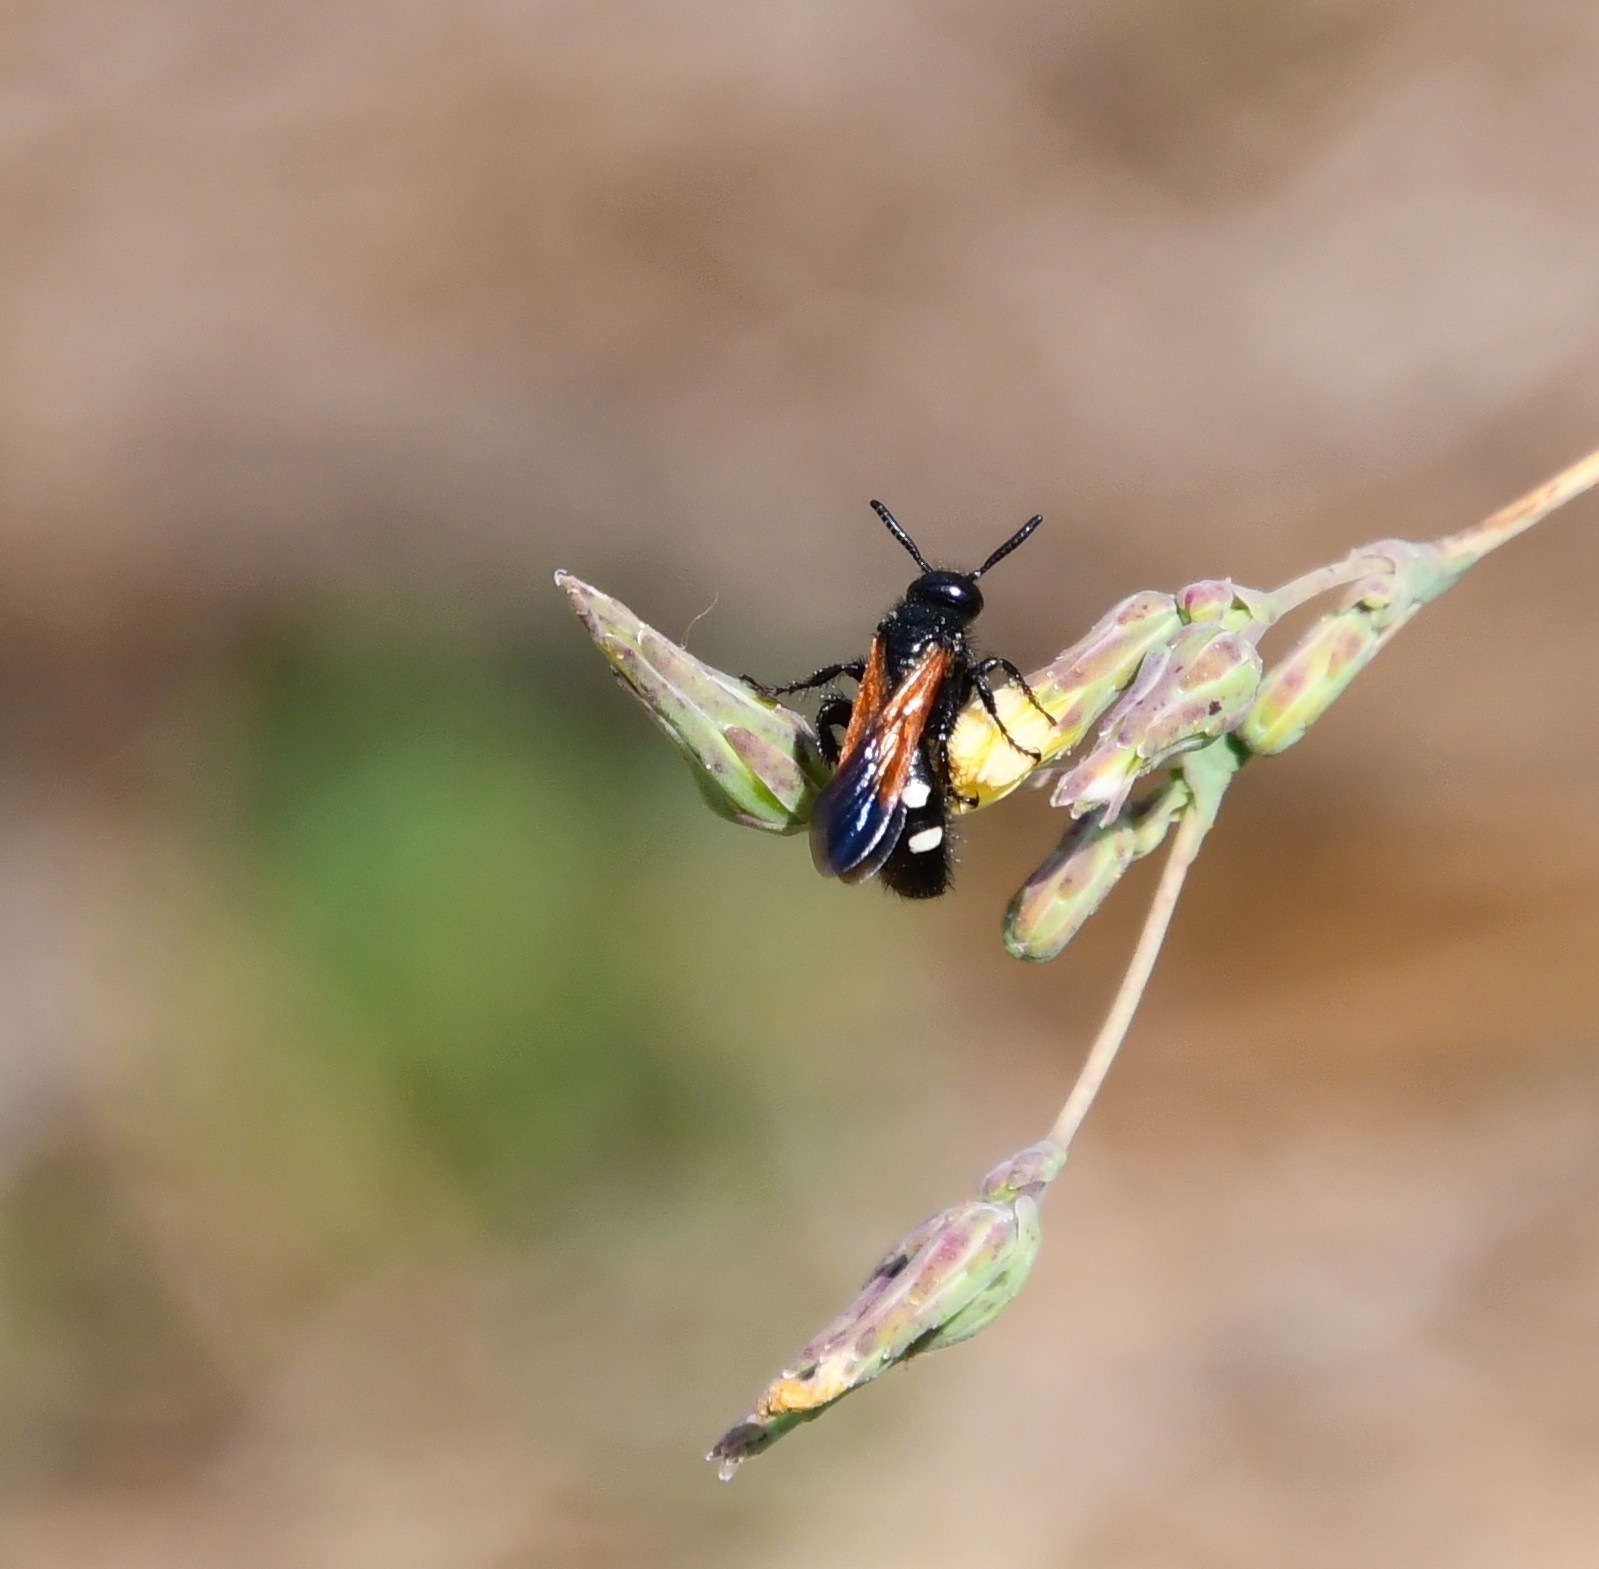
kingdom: Animalia
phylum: Arthropoda
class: Insecta
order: Hymenoptera
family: Vespidae
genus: Vespa
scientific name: Vespa sexmaculata
